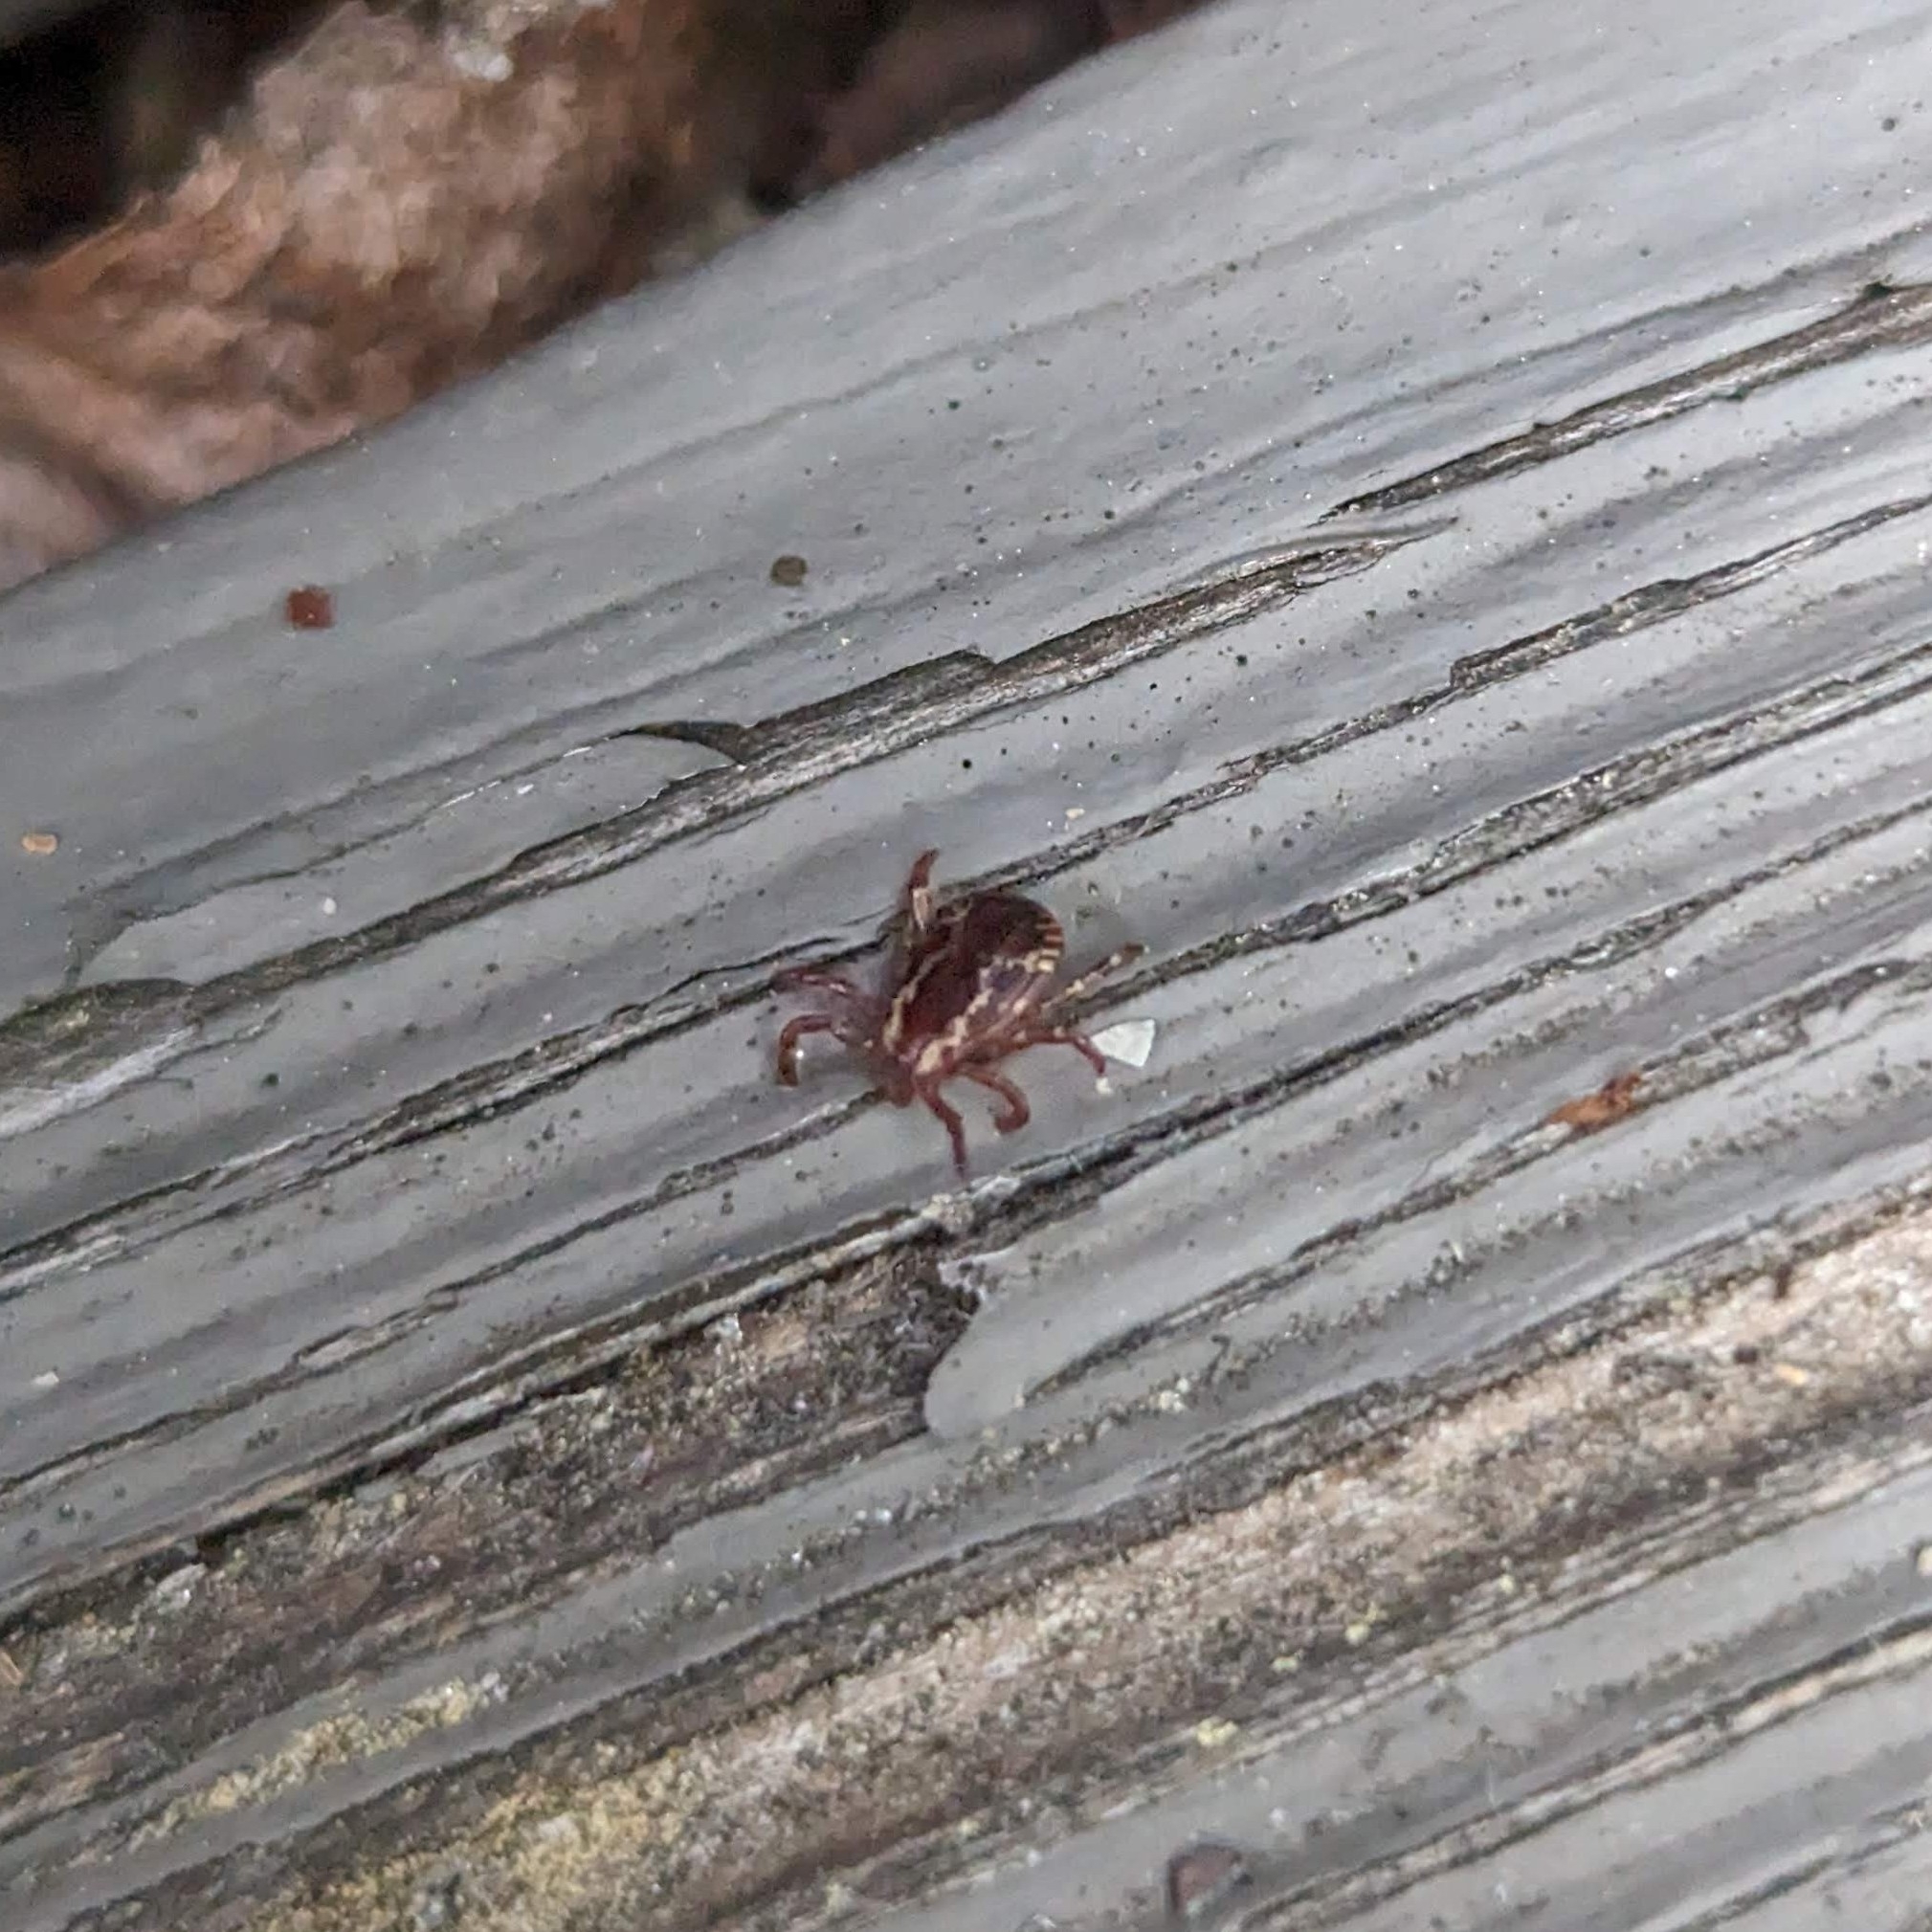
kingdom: Animalia
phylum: Arthropoda
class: Arachnida
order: Ixodida
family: Ixodidae
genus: Dermacentor
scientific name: Dermacentor variabilis
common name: American dog tick
